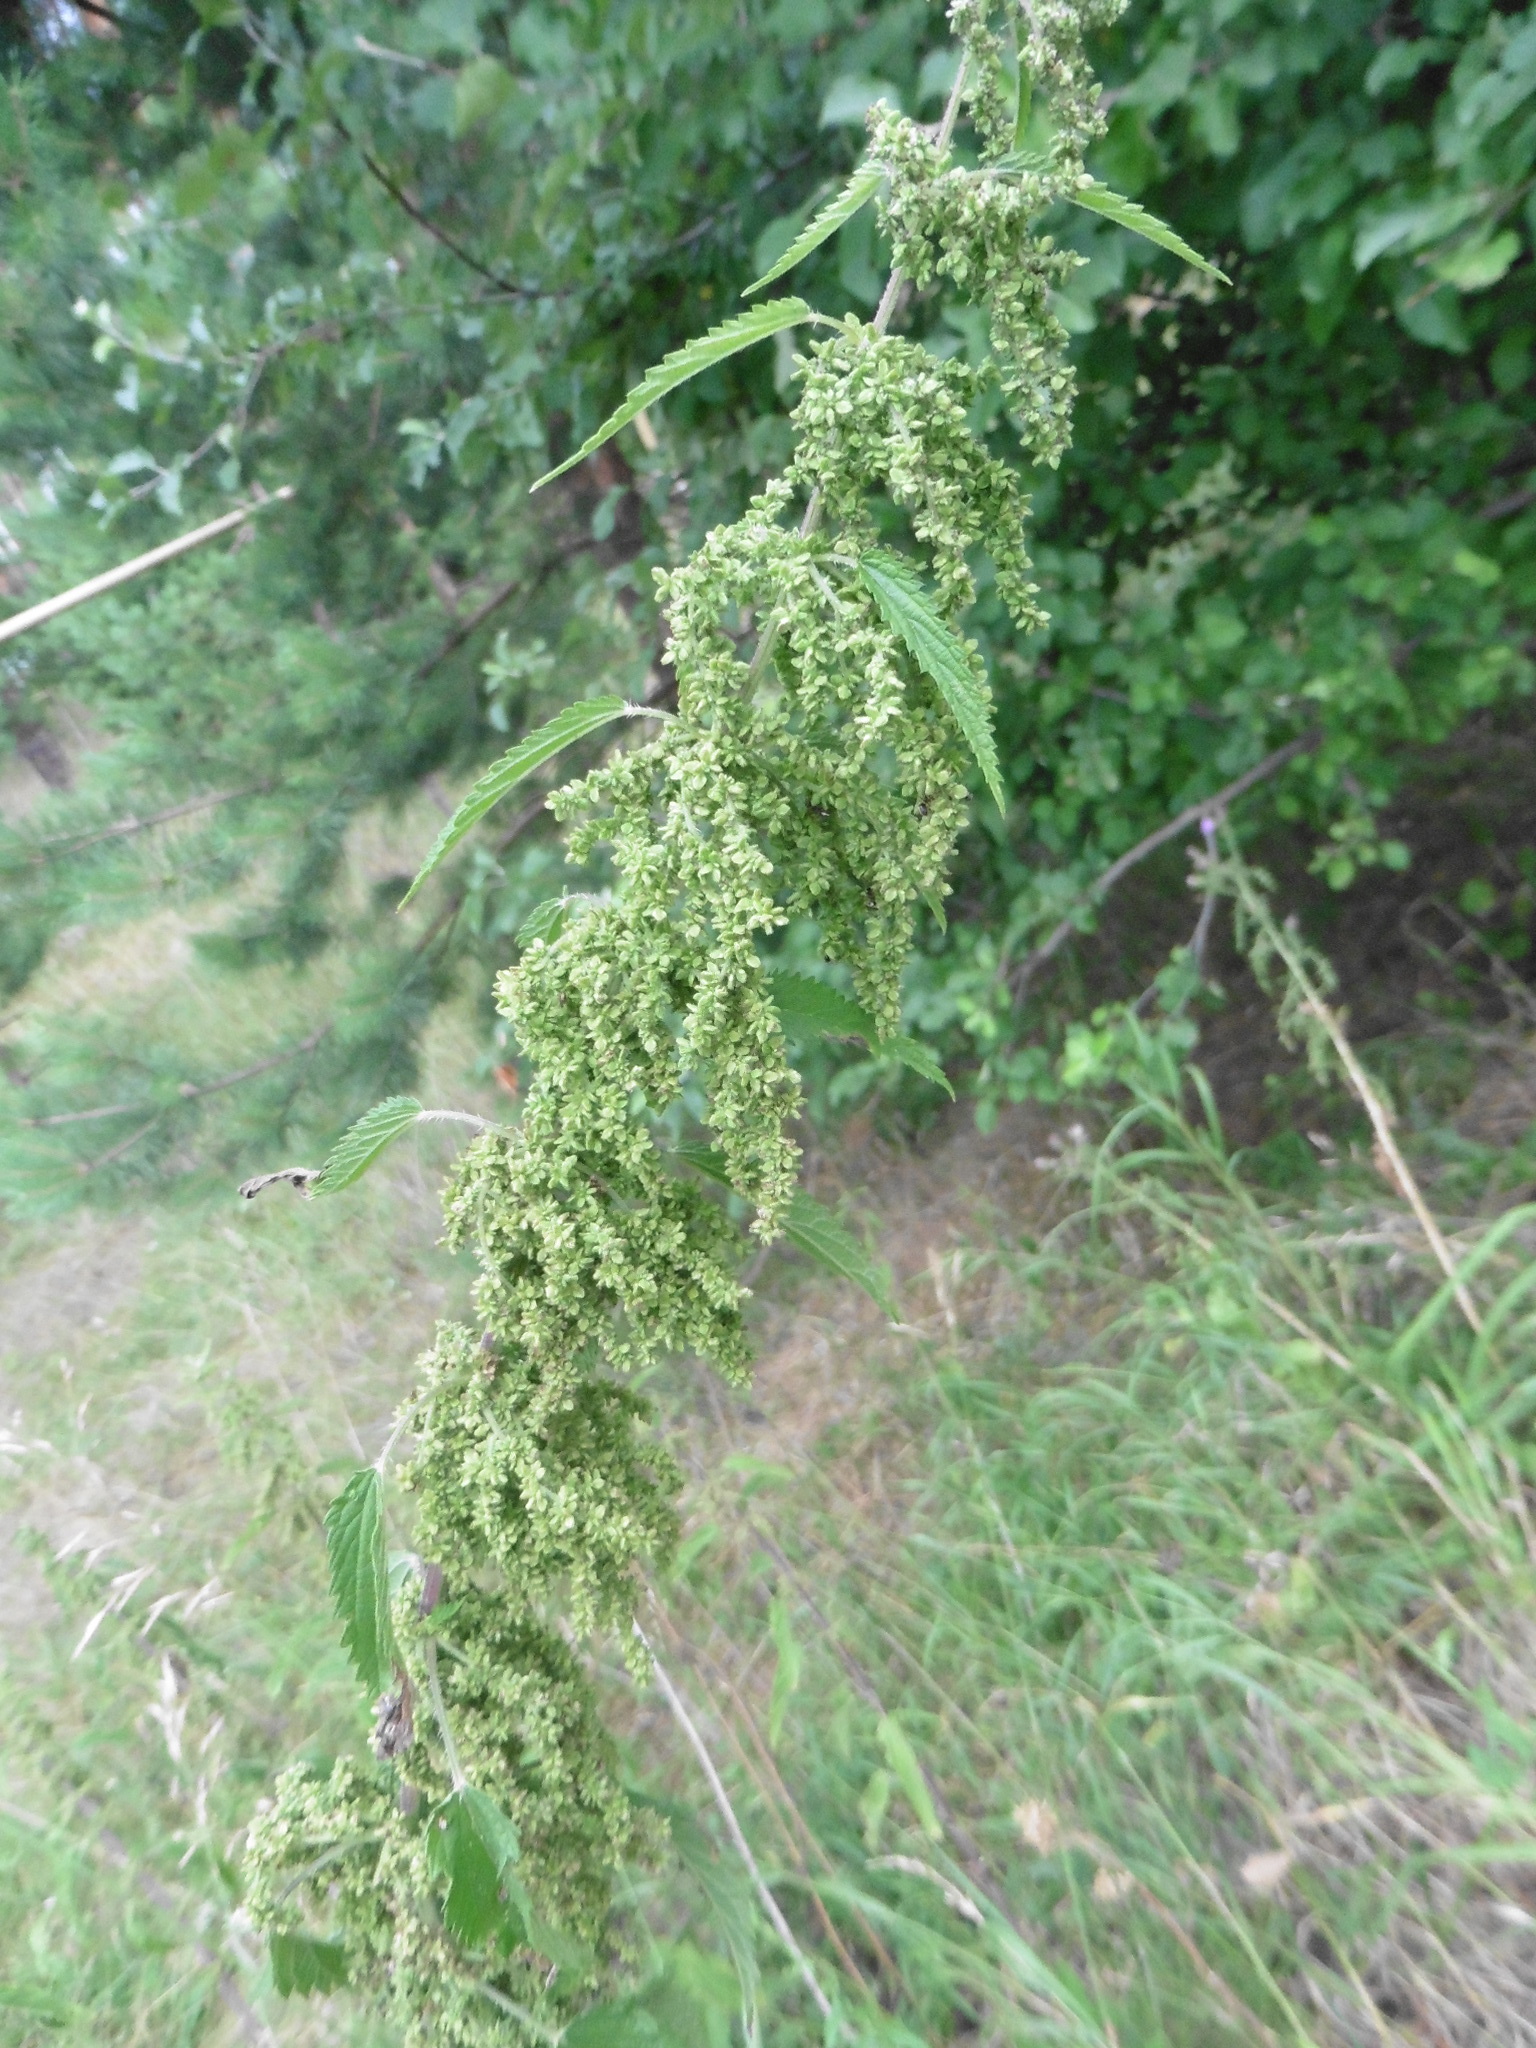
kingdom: Plantae
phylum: Tracheophyta
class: Magnoliopsida
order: Rosales
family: Urticaceae
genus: Urtica
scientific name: Urtica dioica
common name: Common nettle
